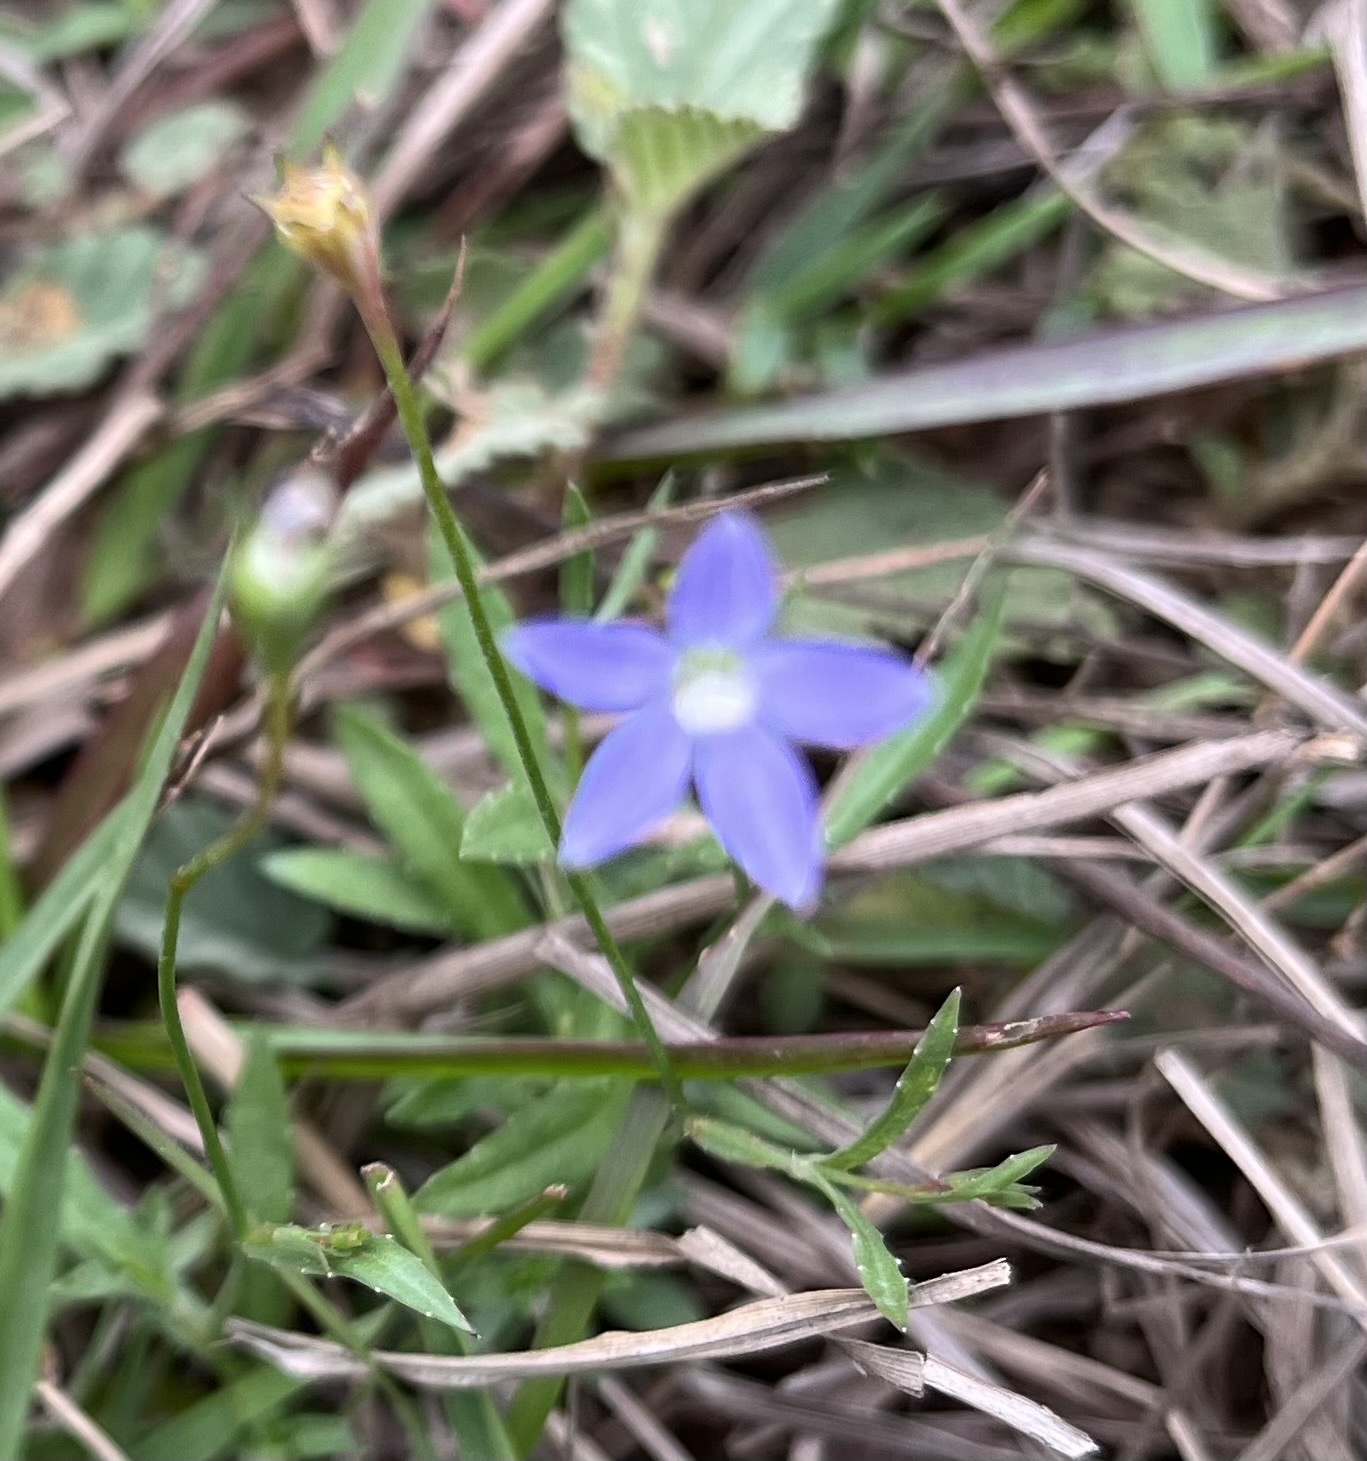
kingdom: Plantae
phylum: Tracheophyta
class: Magnoliopsida
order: Asterales
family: Campanulaceae
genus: Wahlenbergia
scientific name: Wahlenbergia marginata
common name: Southern rockbell
